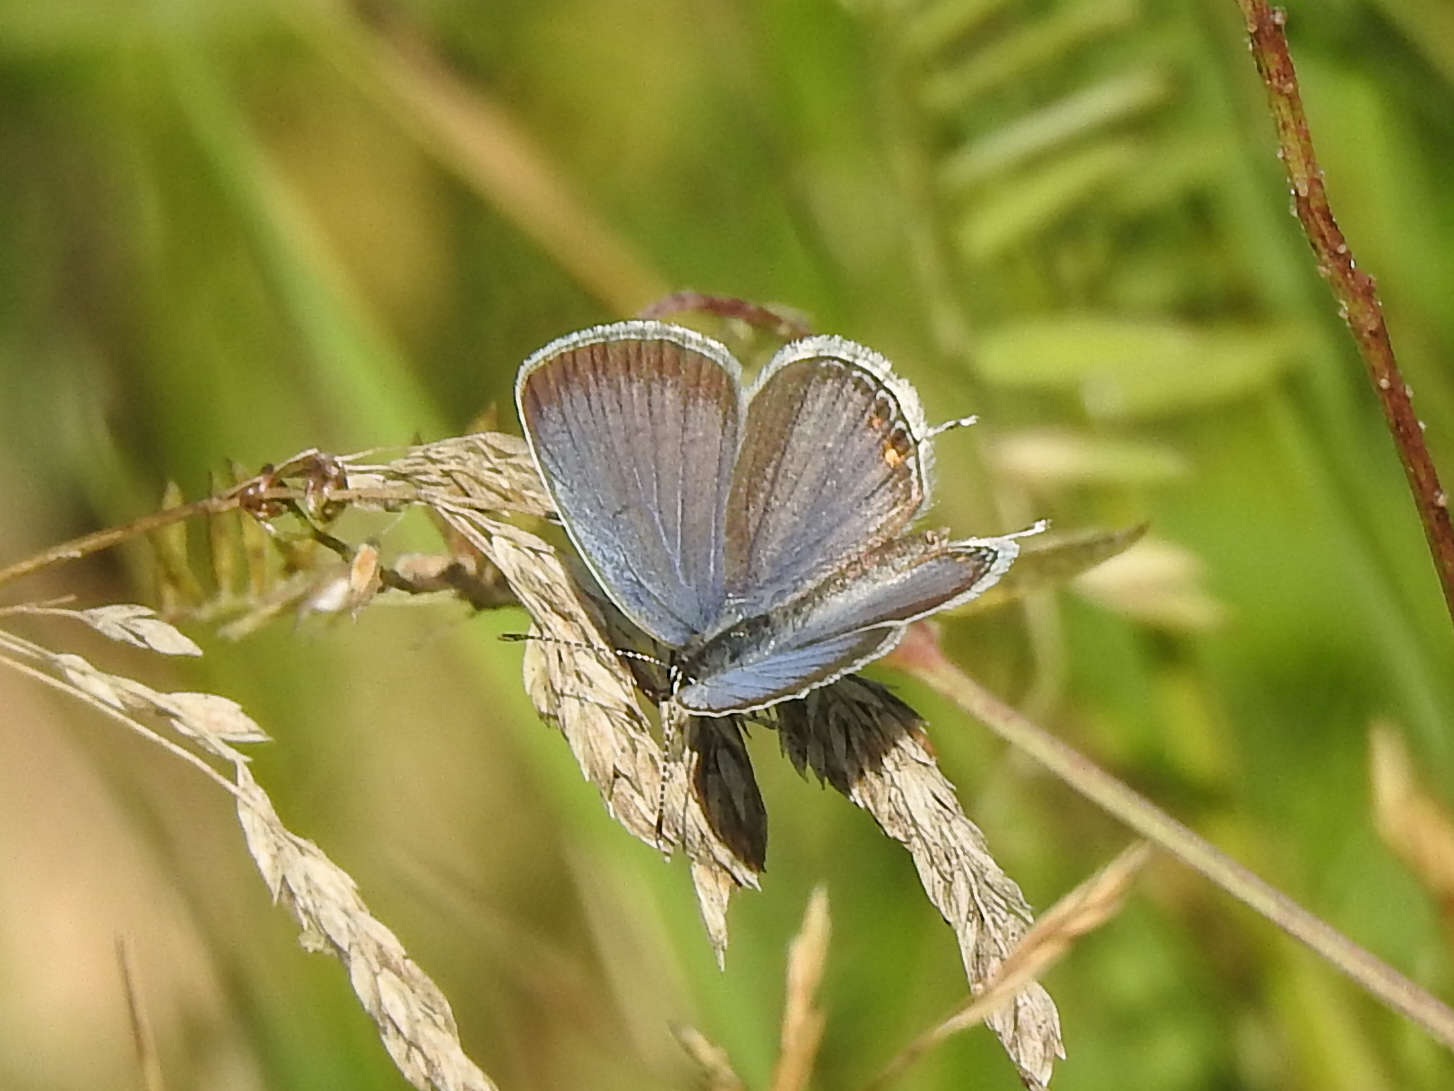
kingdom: Animalia
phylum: Arthropoda
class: Insecta
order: Lepidoptera
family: Lycaenidae
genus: Elkalyce
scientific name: Elkalyce comyntas
